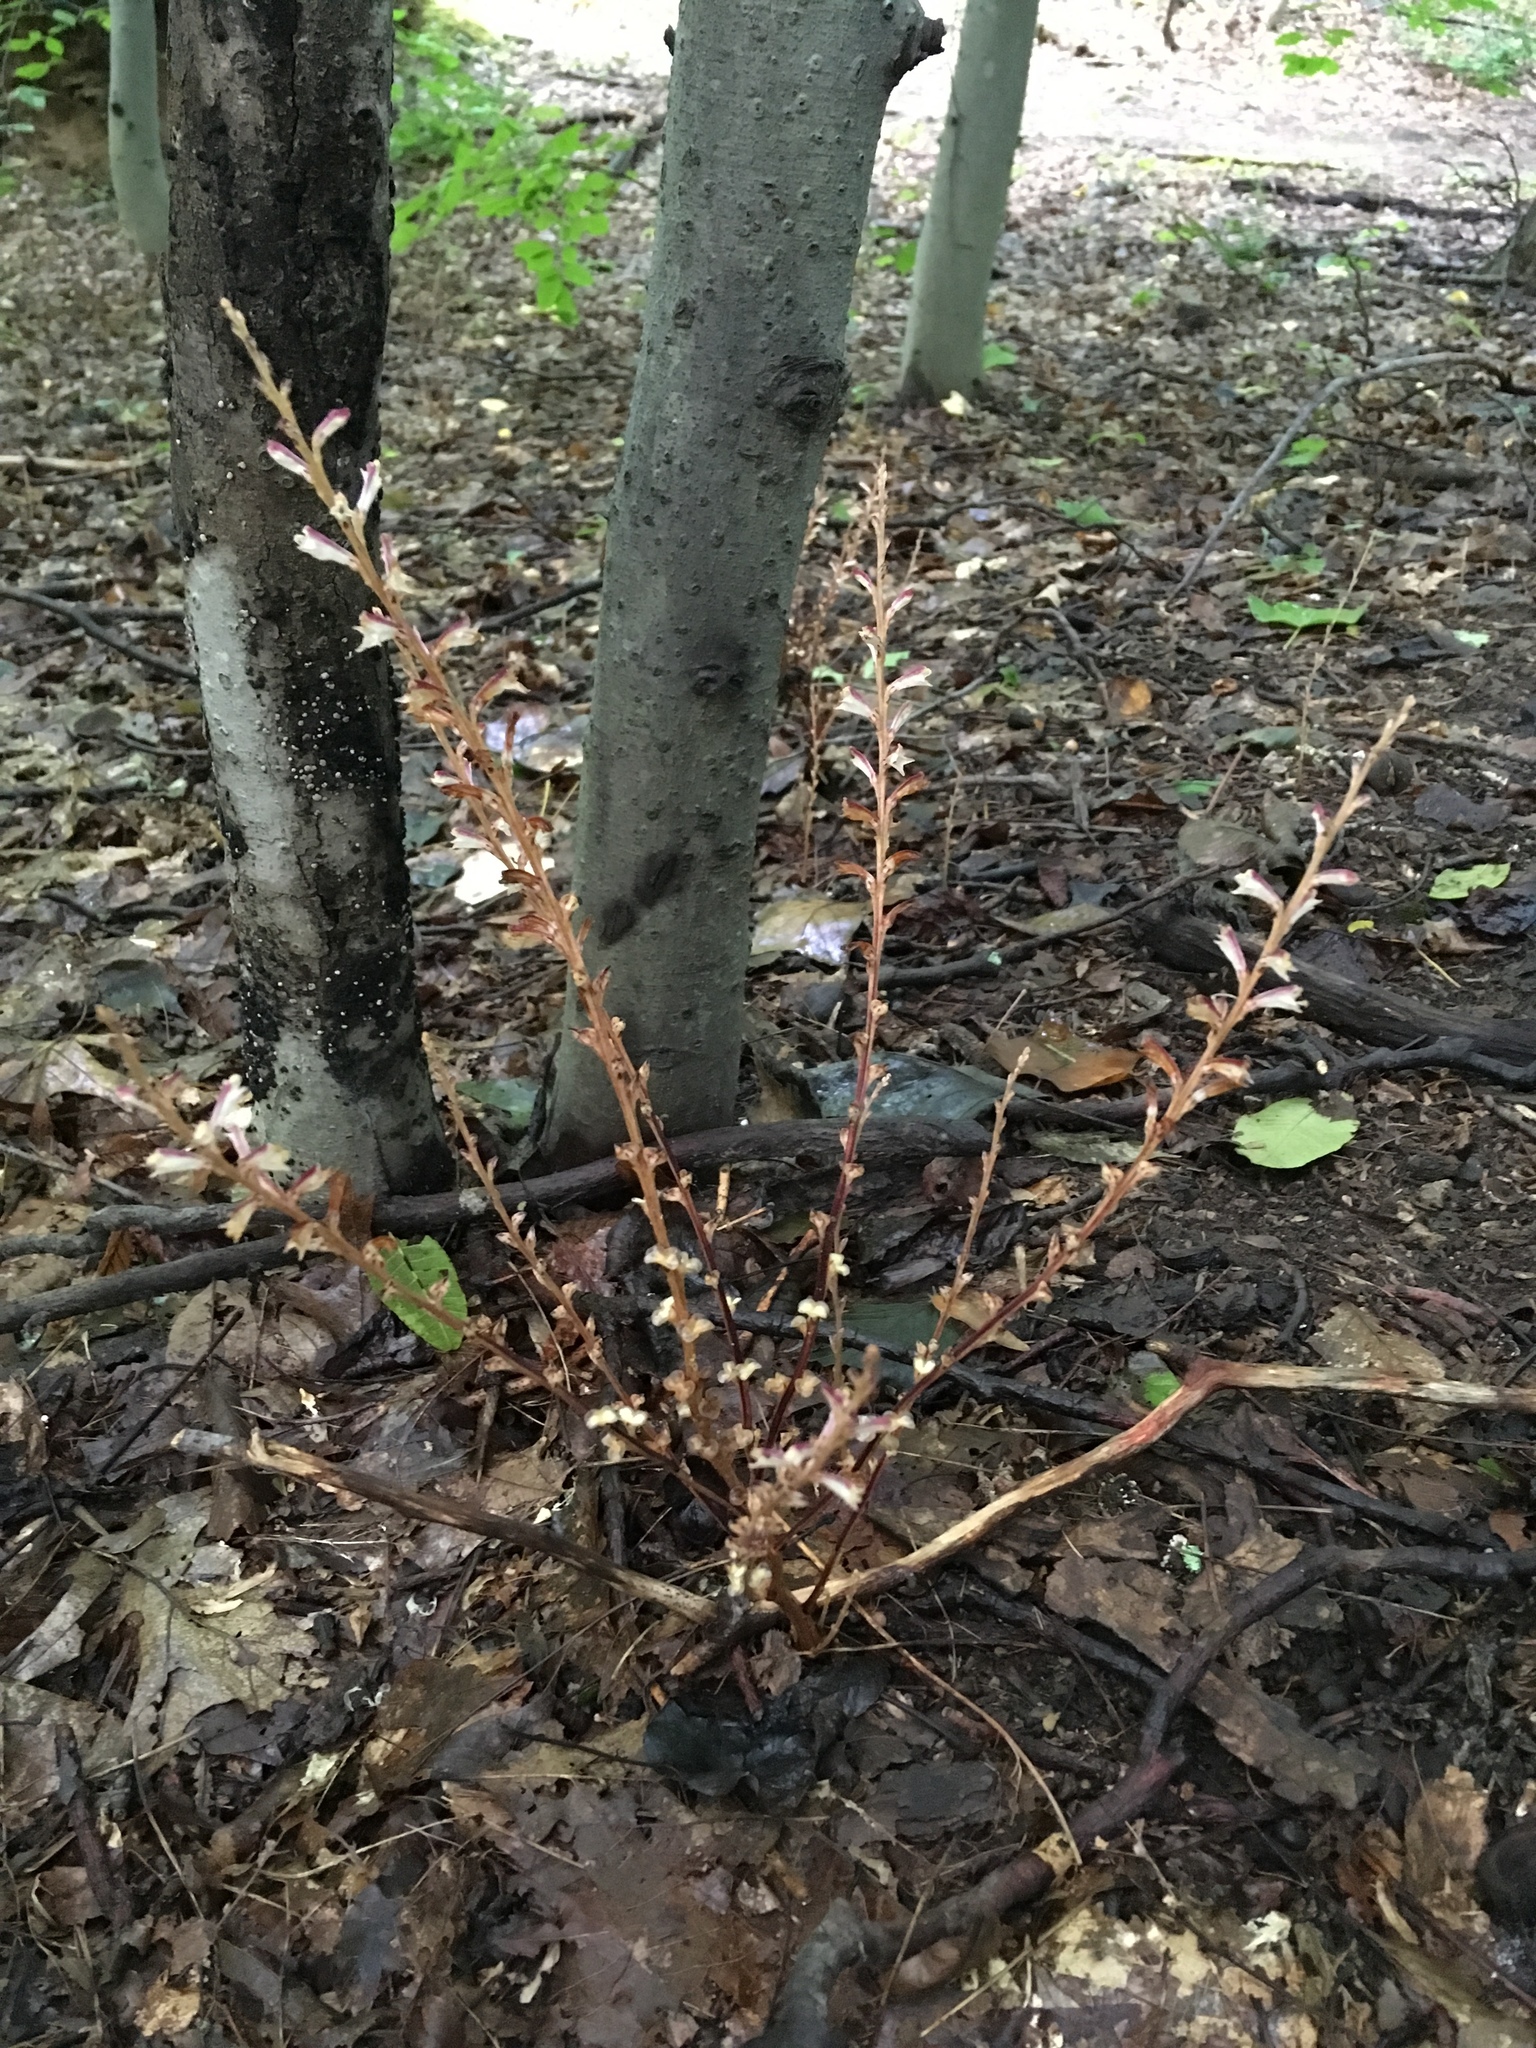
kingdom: Plantae
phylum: Tracheophyta
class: Magnoliopsida
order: Lamiales
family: Orobanchaceae
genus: Epifagus
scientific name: Epifagus virginiana
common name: Beechdrops
